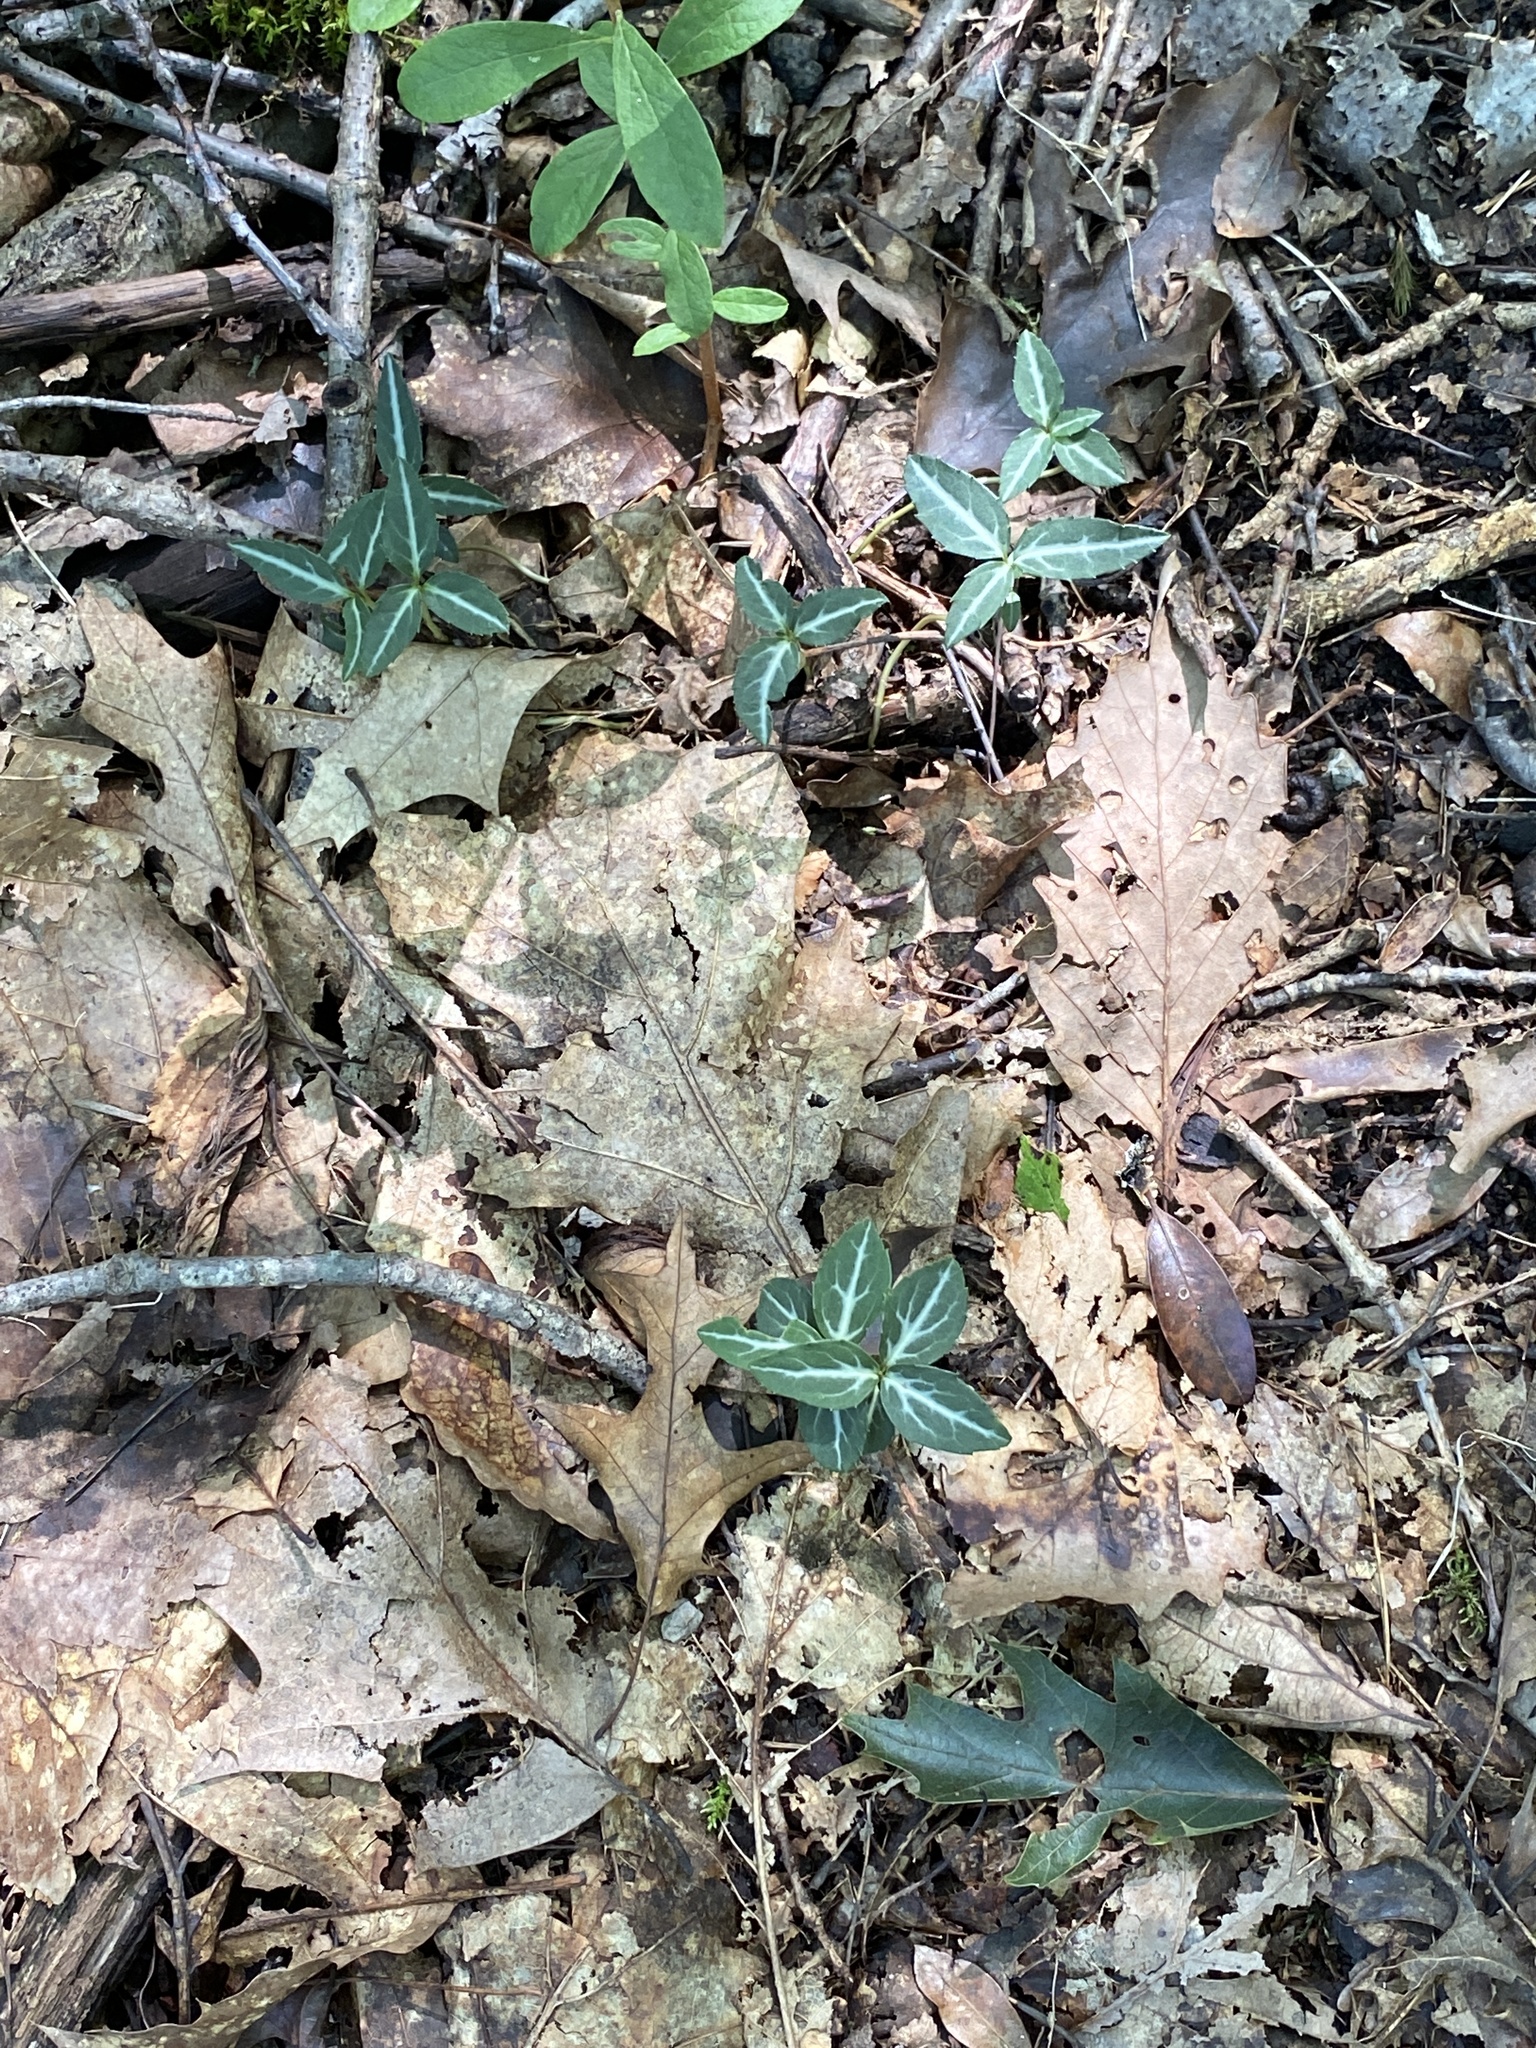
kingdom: Plantae
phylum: Tracheophyta
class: Magnoliopsida
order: Ericales
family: Ericaceae
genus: Chimaphila
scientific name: Chimaphila maculata
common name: Spotted pipsissewa
